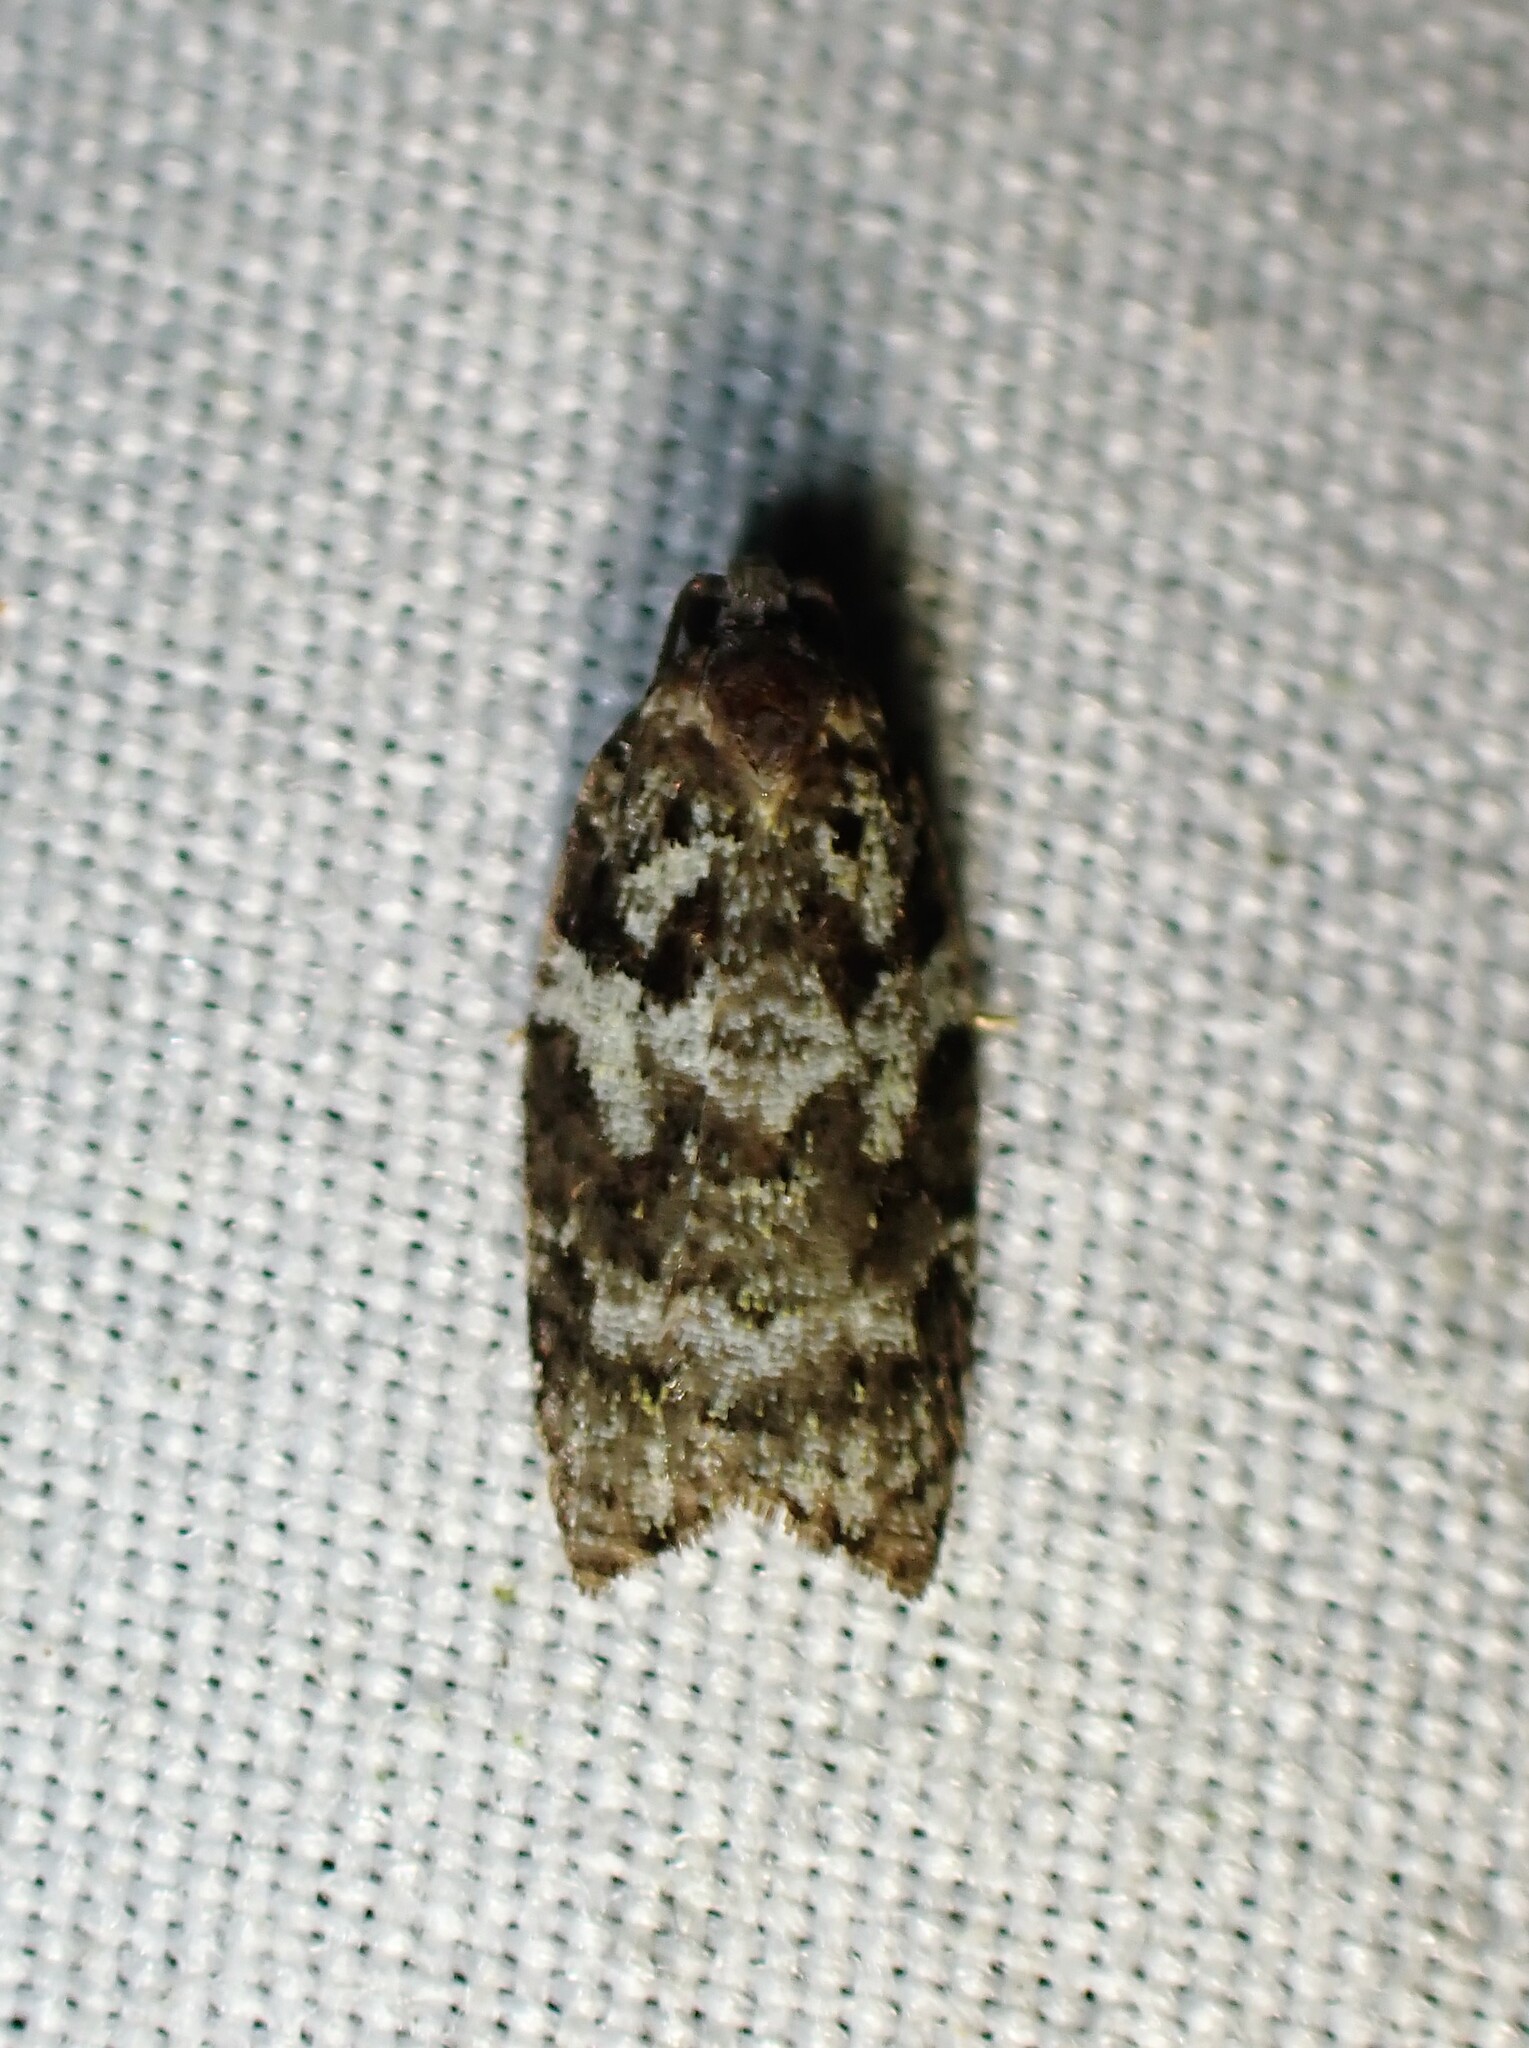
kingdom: Animalia
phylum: Arthropoda
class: Insecta
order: Lepidoptera
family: Tortricidae
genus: Acleris
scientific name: Acleris variana
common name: Eastern black-headed budworm moth
